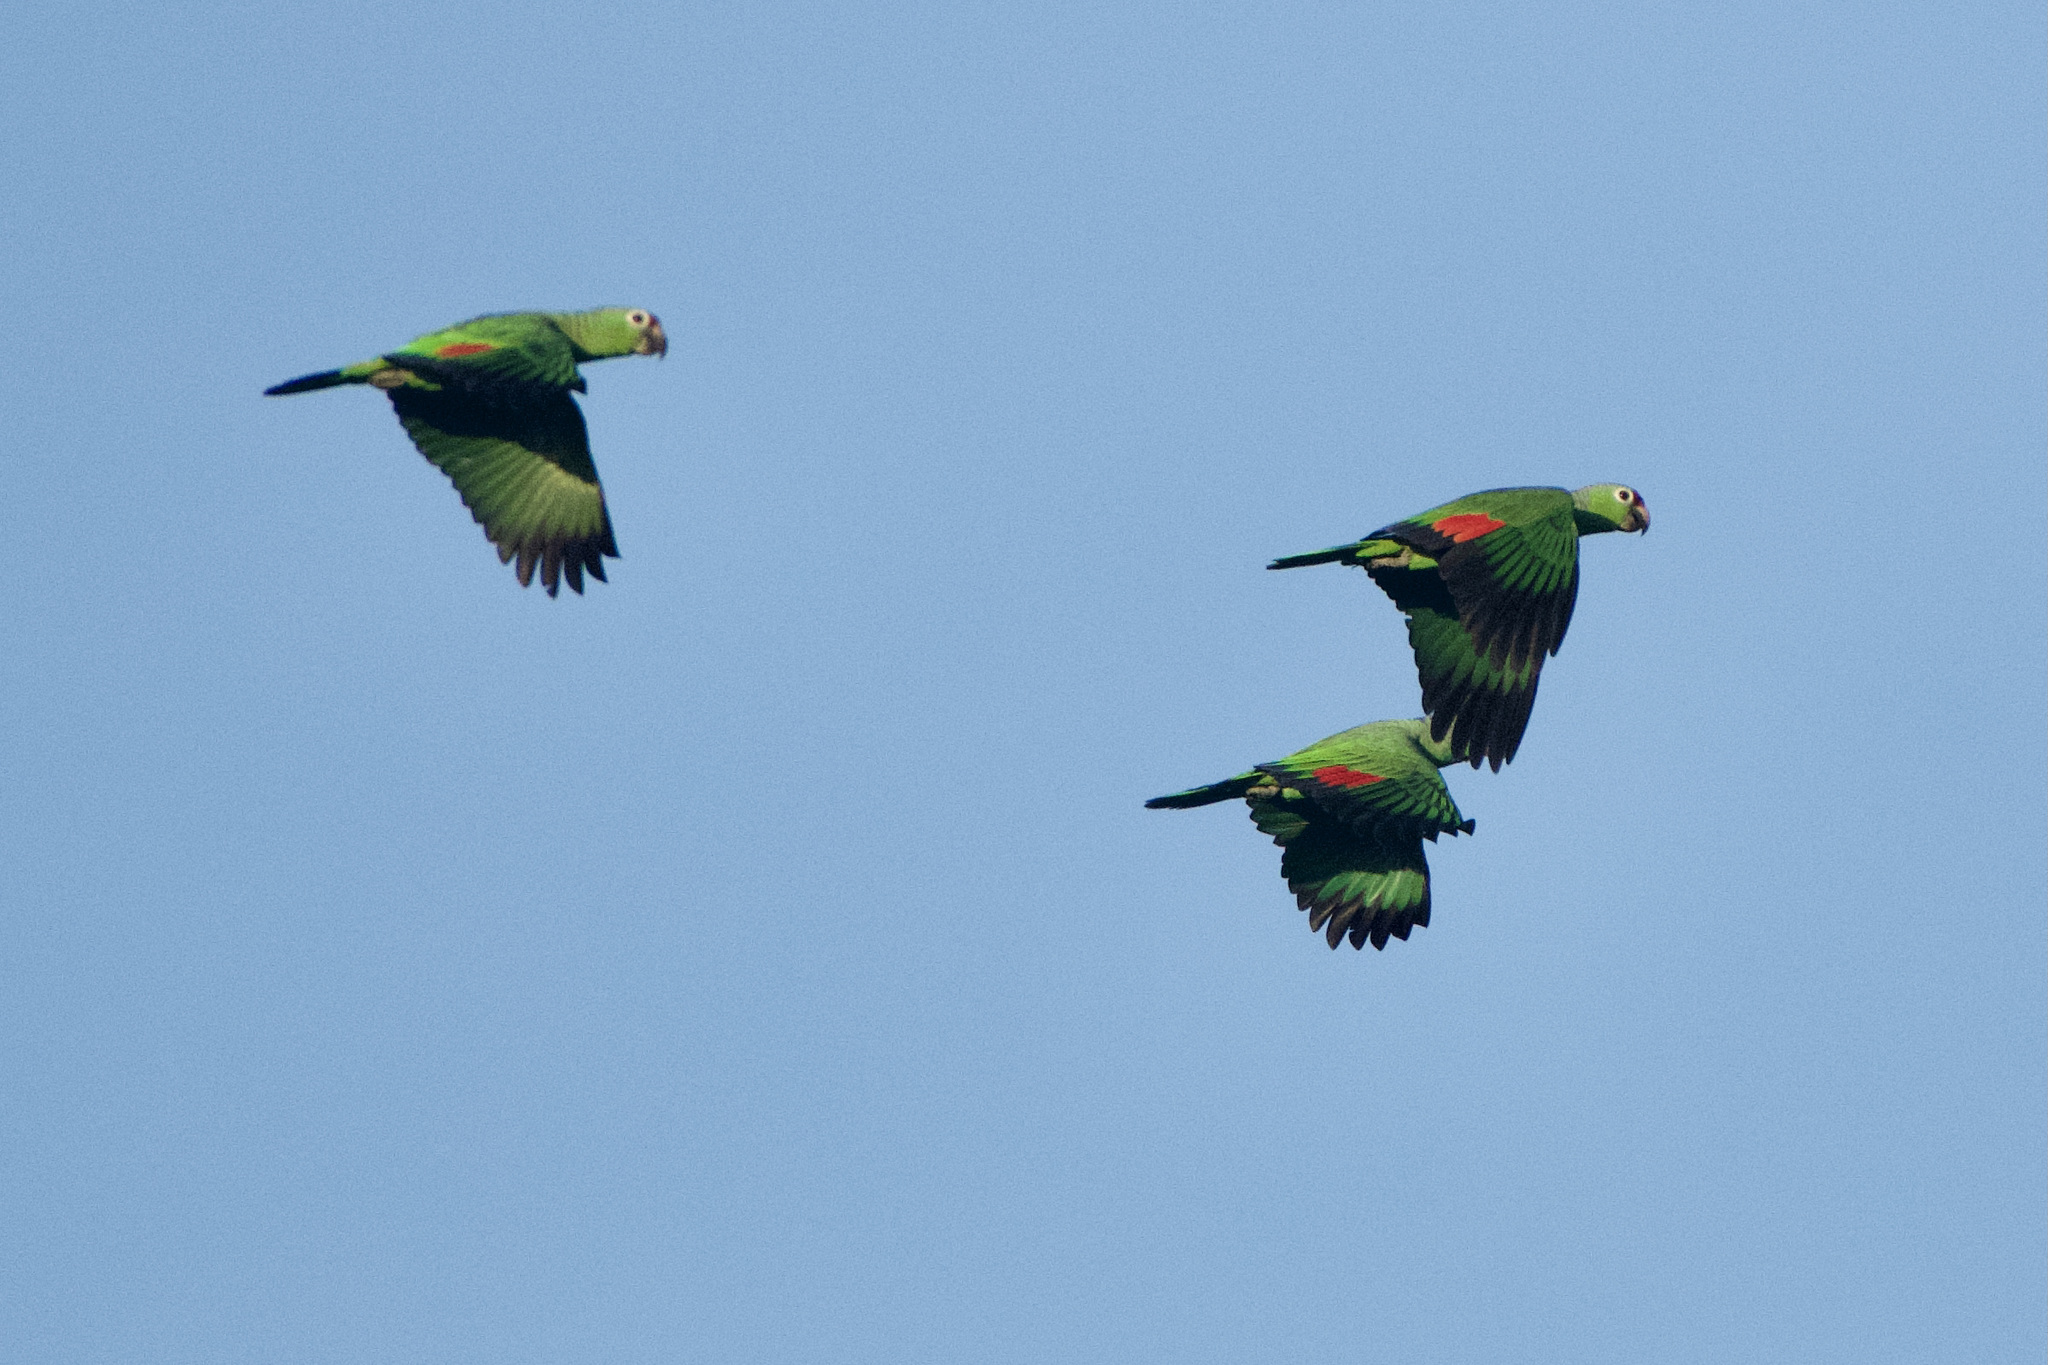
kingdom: Animalia
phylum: Chordata
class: Aves
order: Psittaciformes
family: Psittacidae
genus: Amazona
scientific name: Amazona autumnalis
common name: Red-lored amazon
